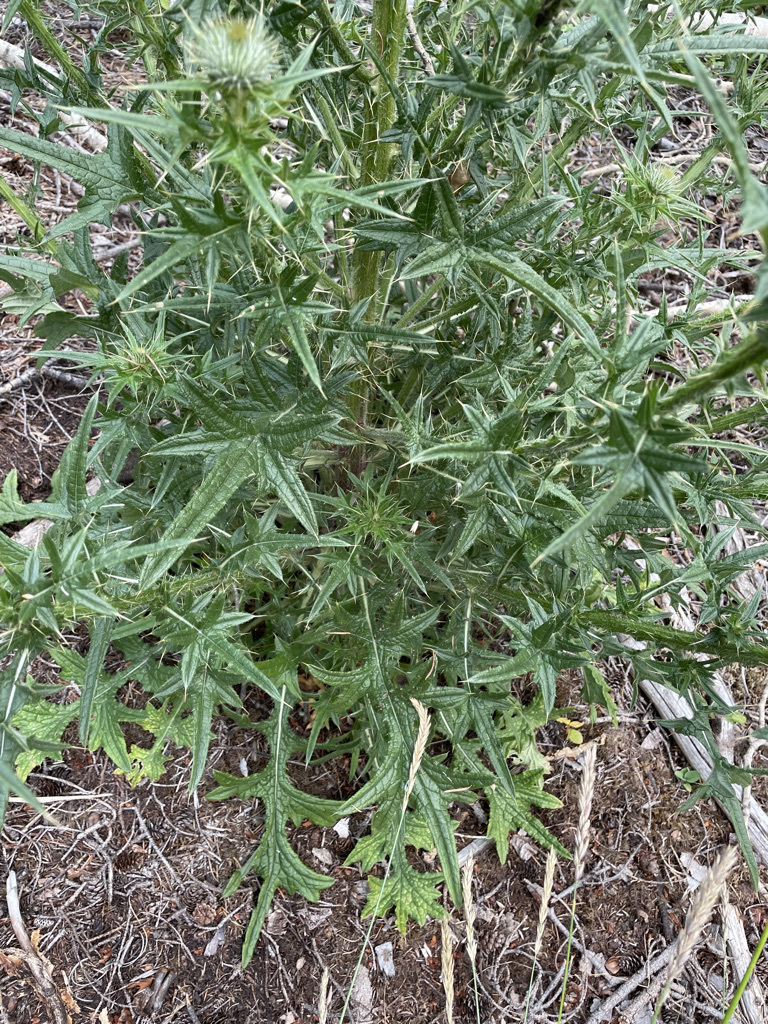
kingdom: Plantae
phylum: Tracheophyta
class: Magnoliopsida
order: Asterales
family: Asteraceae
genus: Cirsium
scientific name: Cirsium vulgare
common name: Bull thistle
